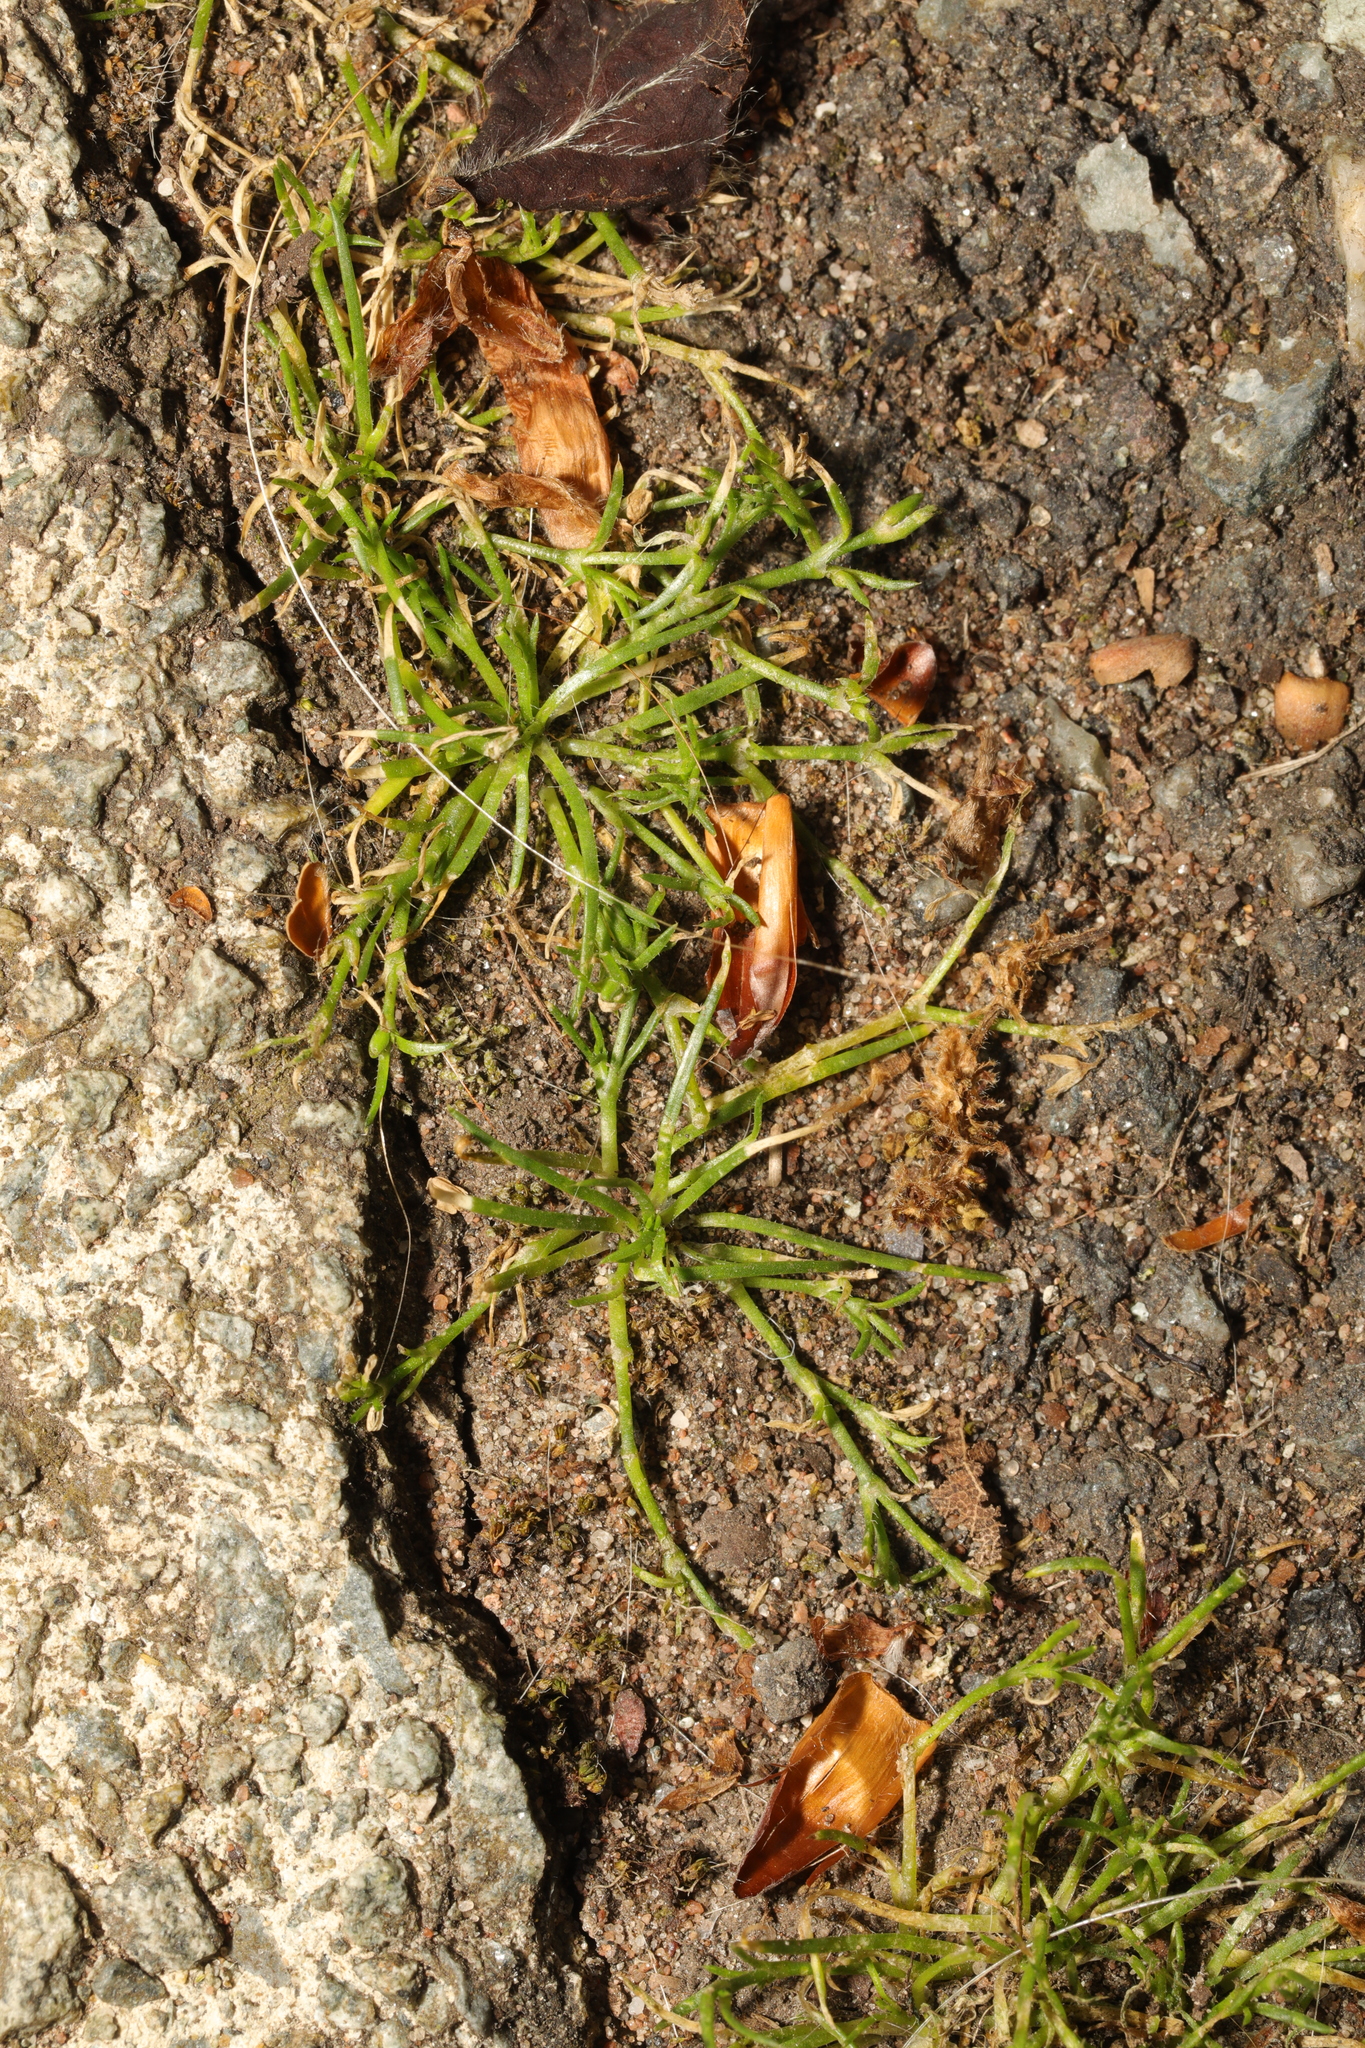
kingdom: Plantae
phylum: Tracheophyta
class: Magnoliopsida
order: Caryophyllales
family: Caryophyllaceae
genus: Sagina
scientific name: Sagina procumbens
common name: Procumbent pearlwort
